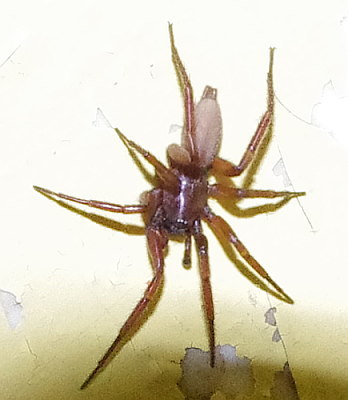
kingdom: Animalia
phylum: Arthropoda
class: Arachnida
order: Araneae
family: Gnaphosidae
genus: Urozelotes
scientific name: Urozelotes rusticus
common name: Spider
